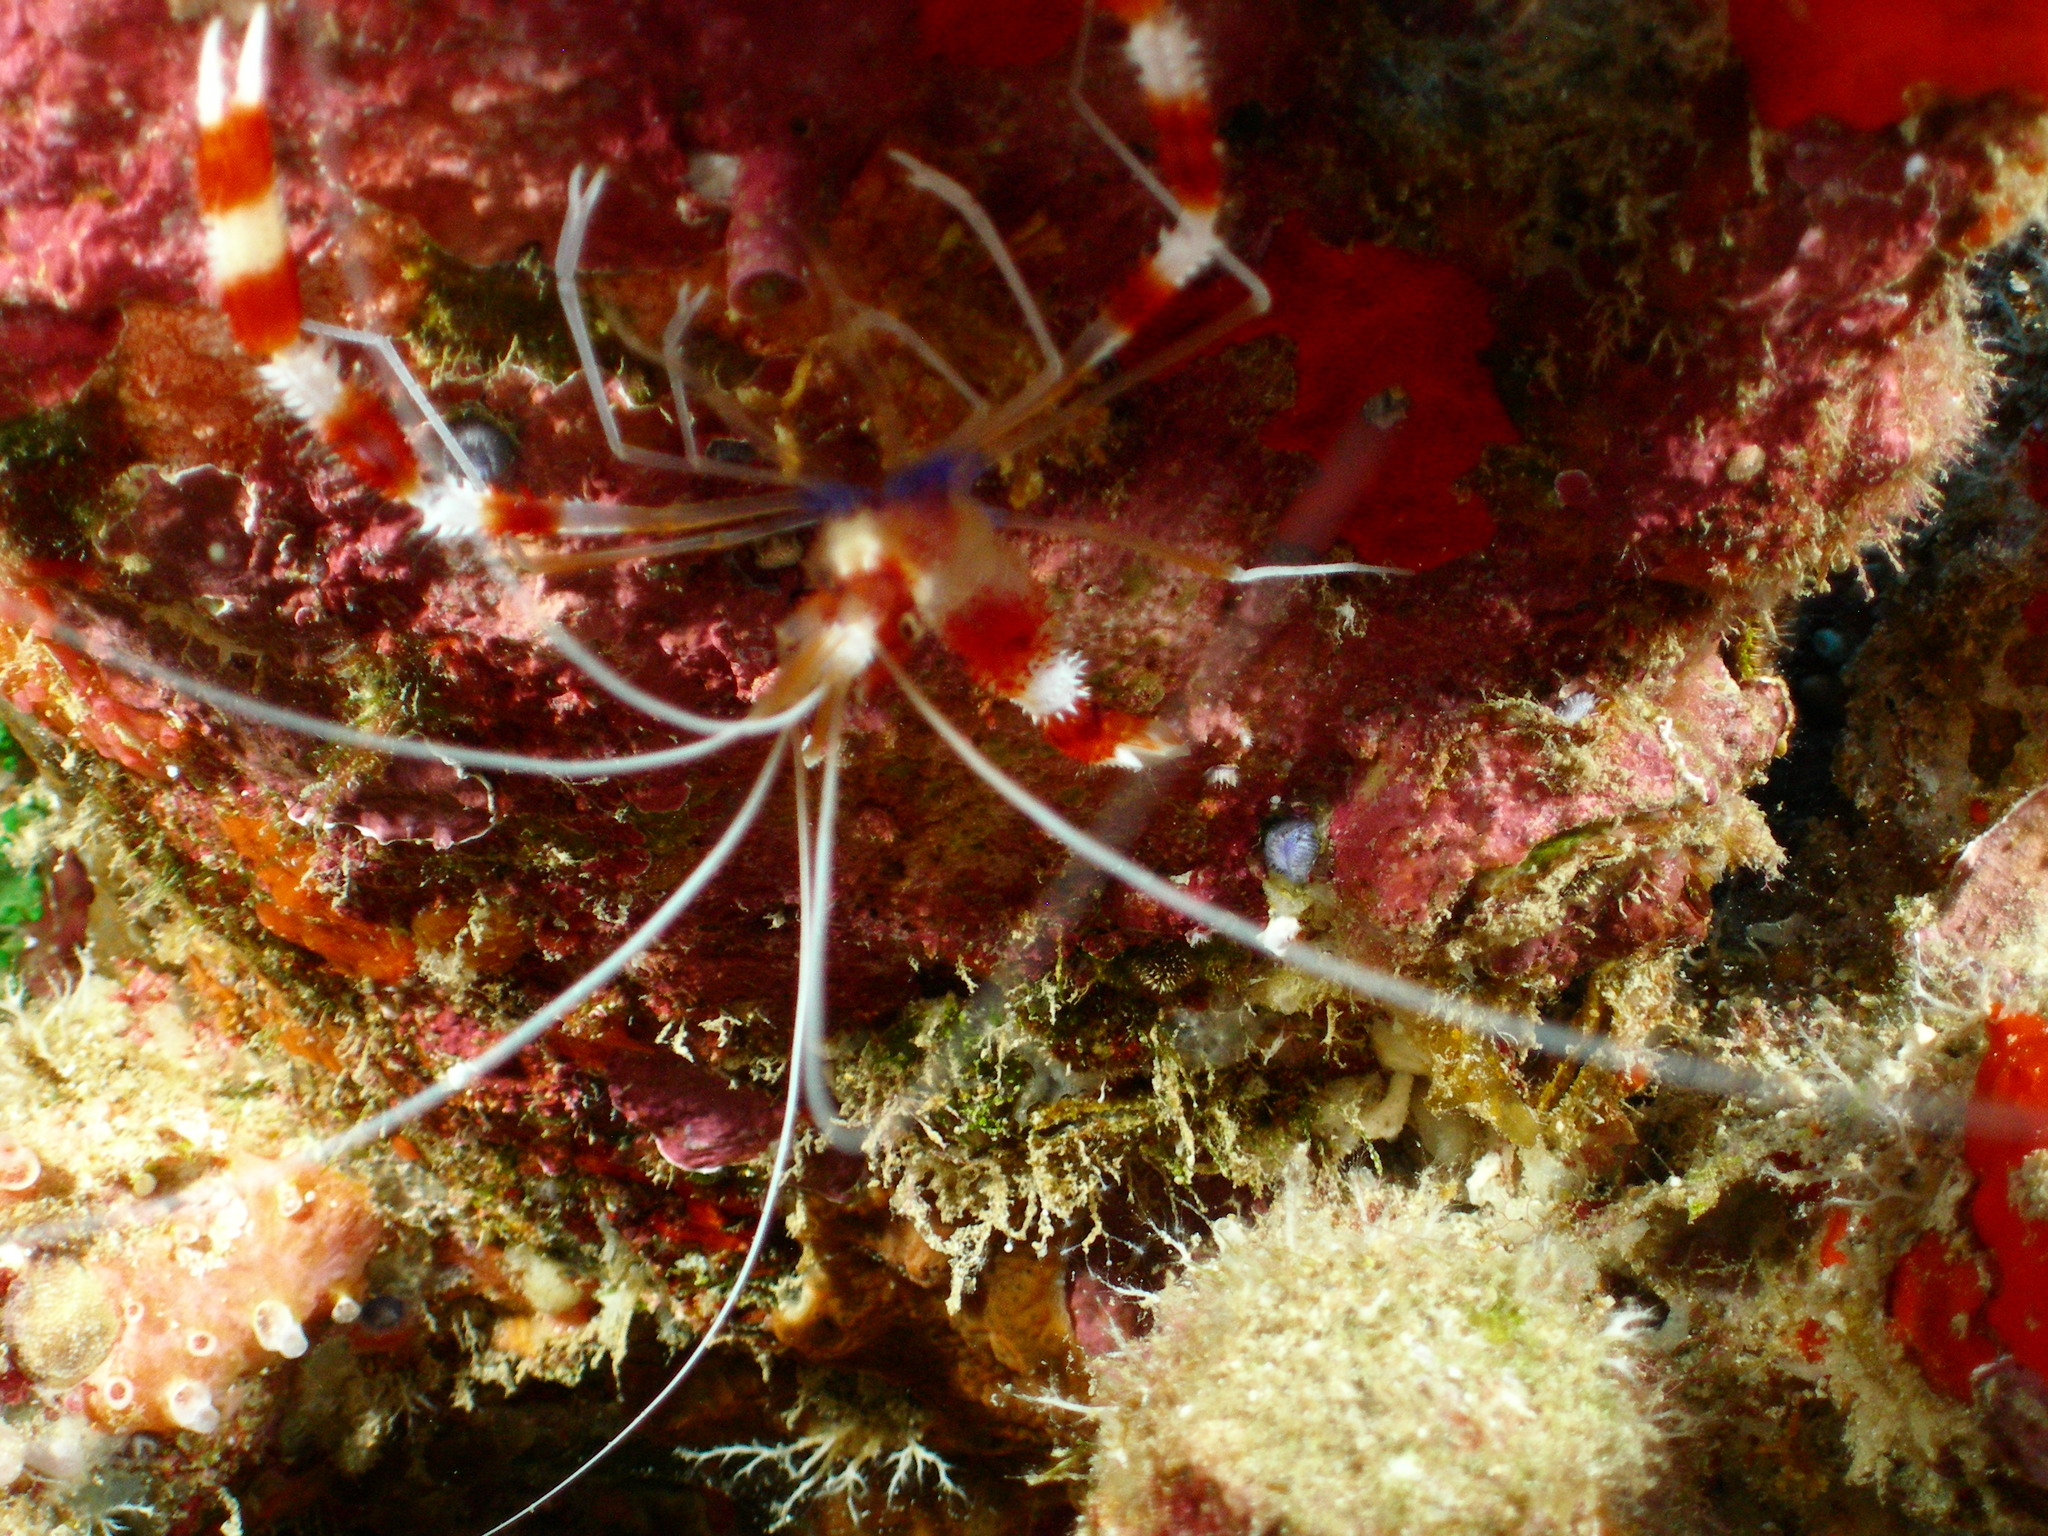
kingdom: Animalia
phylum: Arthropoda
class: Malacostraca
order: Decapoda
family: Stenopodidae
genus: Stenopus
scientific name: Stenopus hispidus
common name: Banded coral shrimp
